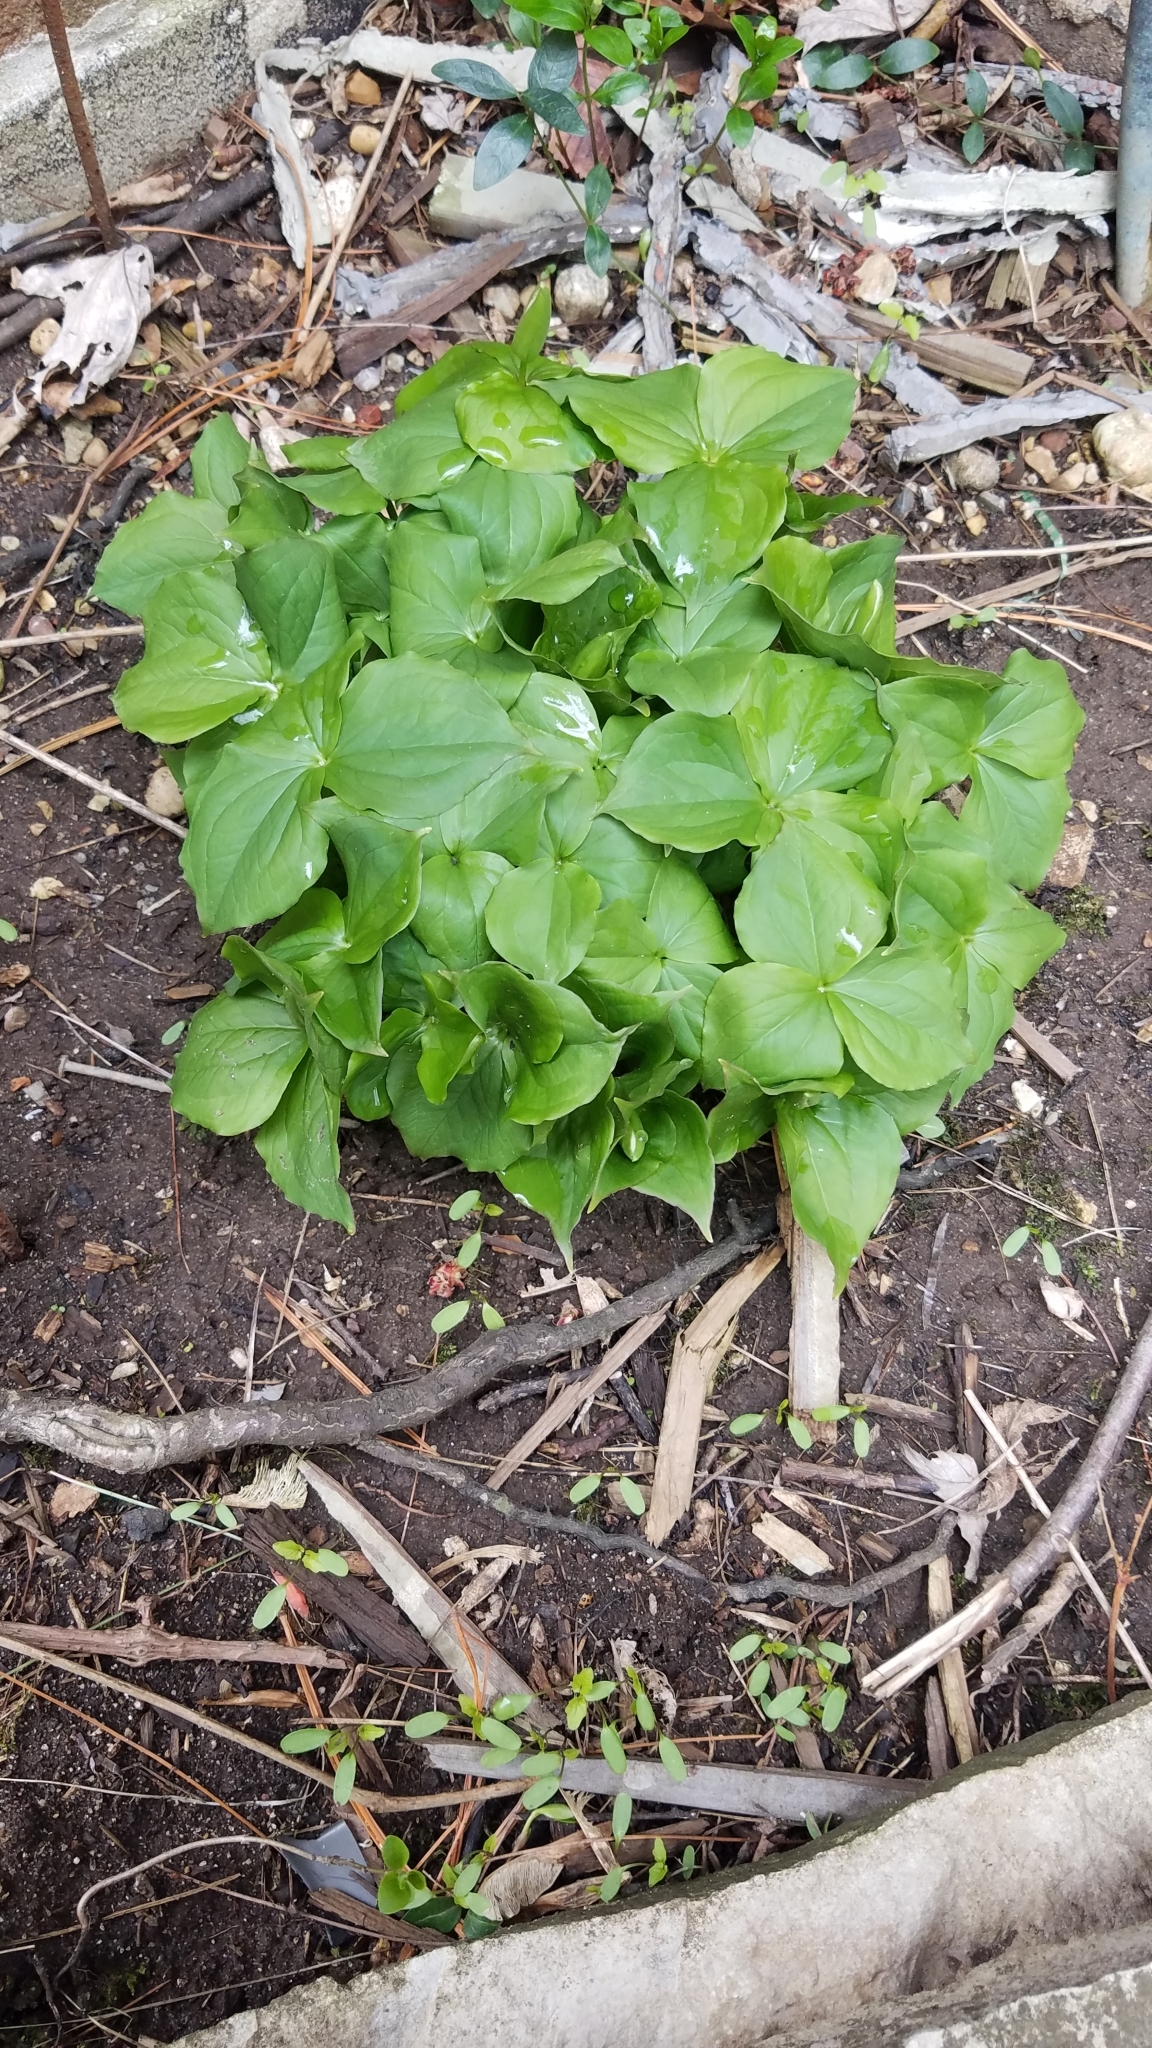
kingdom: Plantae
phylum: Tracheophyta
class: Liliopsida
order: Liliales
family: Melanthiaceae
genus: Trillium
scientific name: Trillium grandiflorum
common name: Great white trillium
